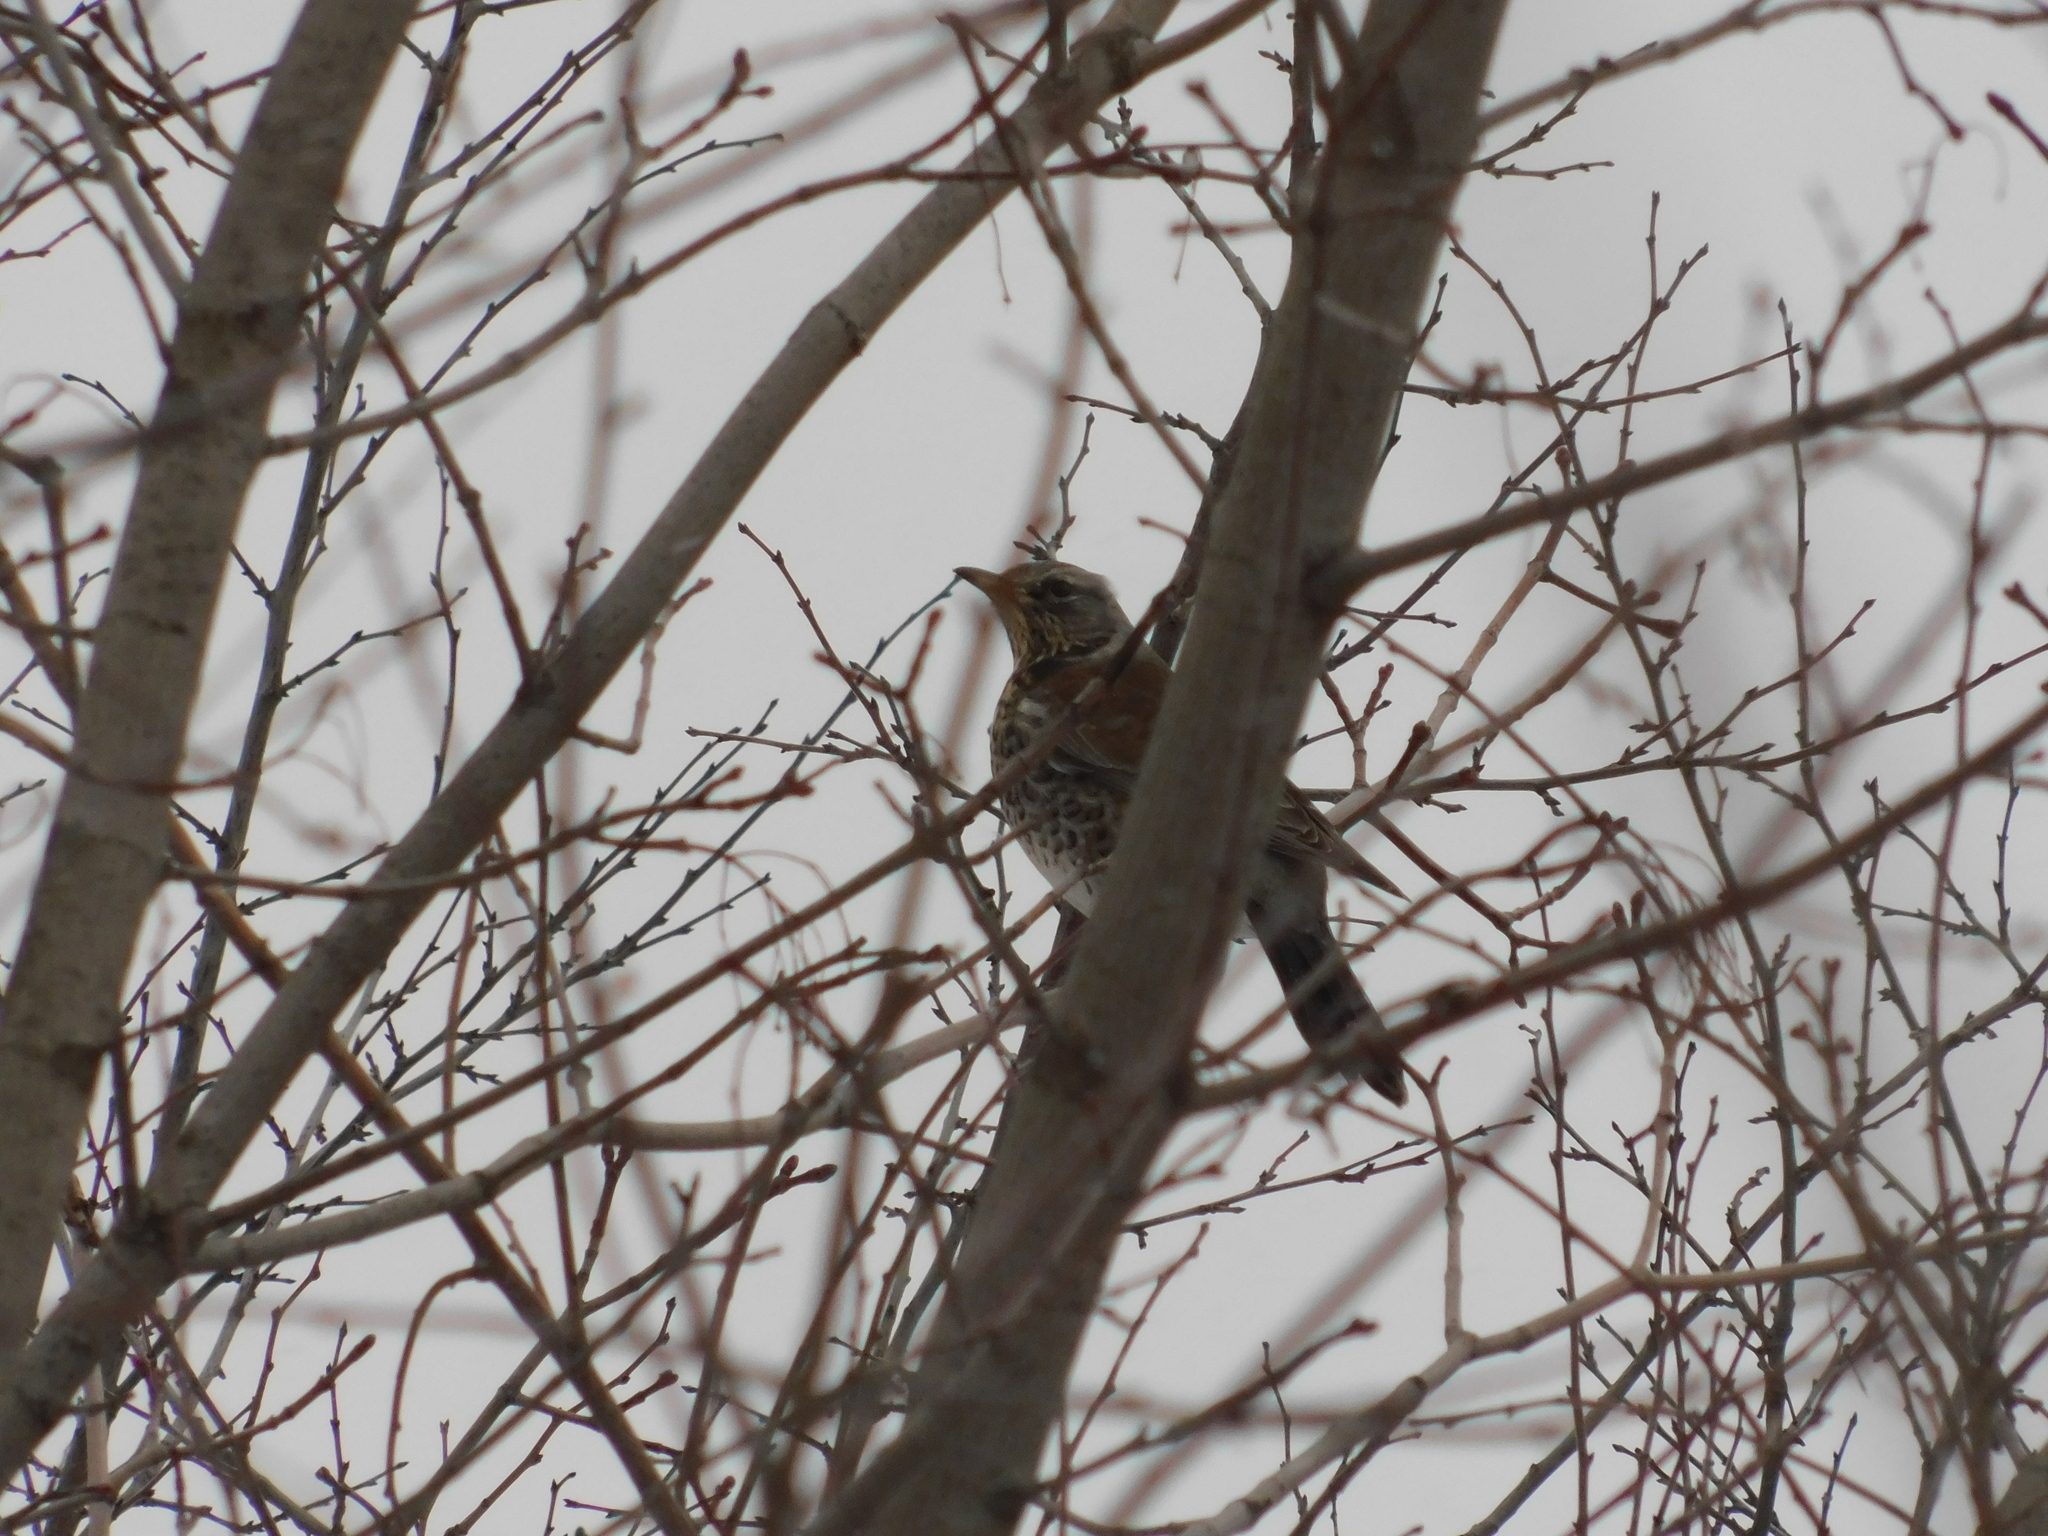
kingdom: Animalia
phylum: Chordata
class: Aves
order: Passeriformes
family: Turdidae
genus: Turdus
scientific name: Turdus pilaris
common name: Fieldfare
